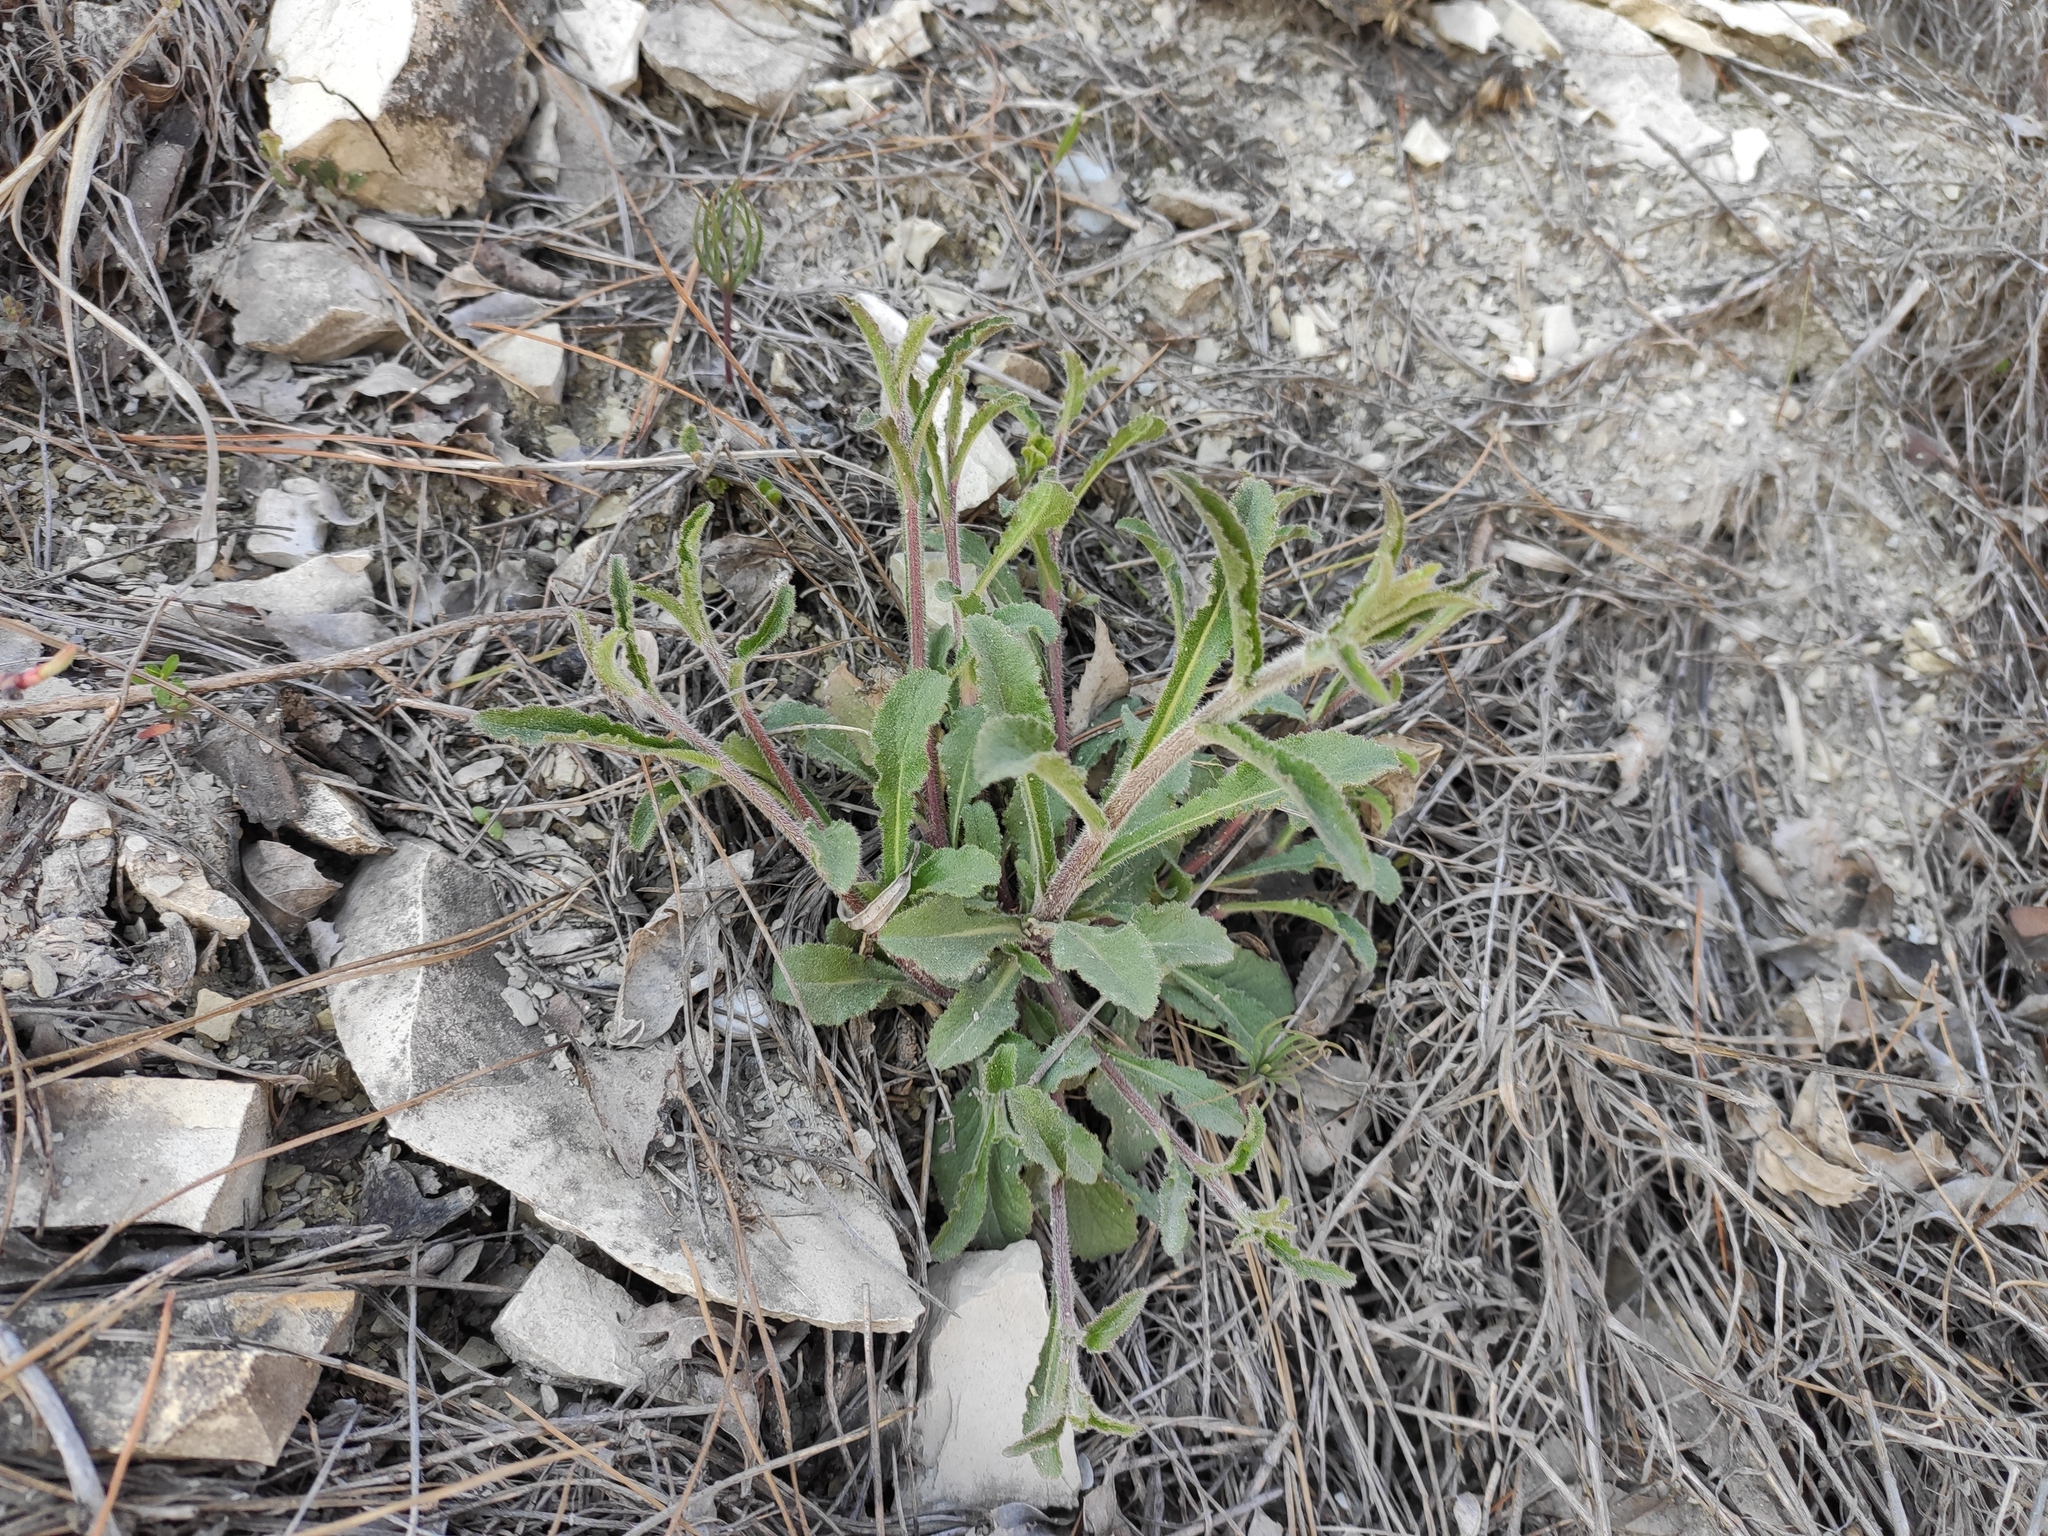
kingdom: Plantae
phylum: Tracheophyta
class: Magnoliopsida
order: Asterales
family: Campanulaceae
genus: Campanula
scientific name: Campanula komarovii
